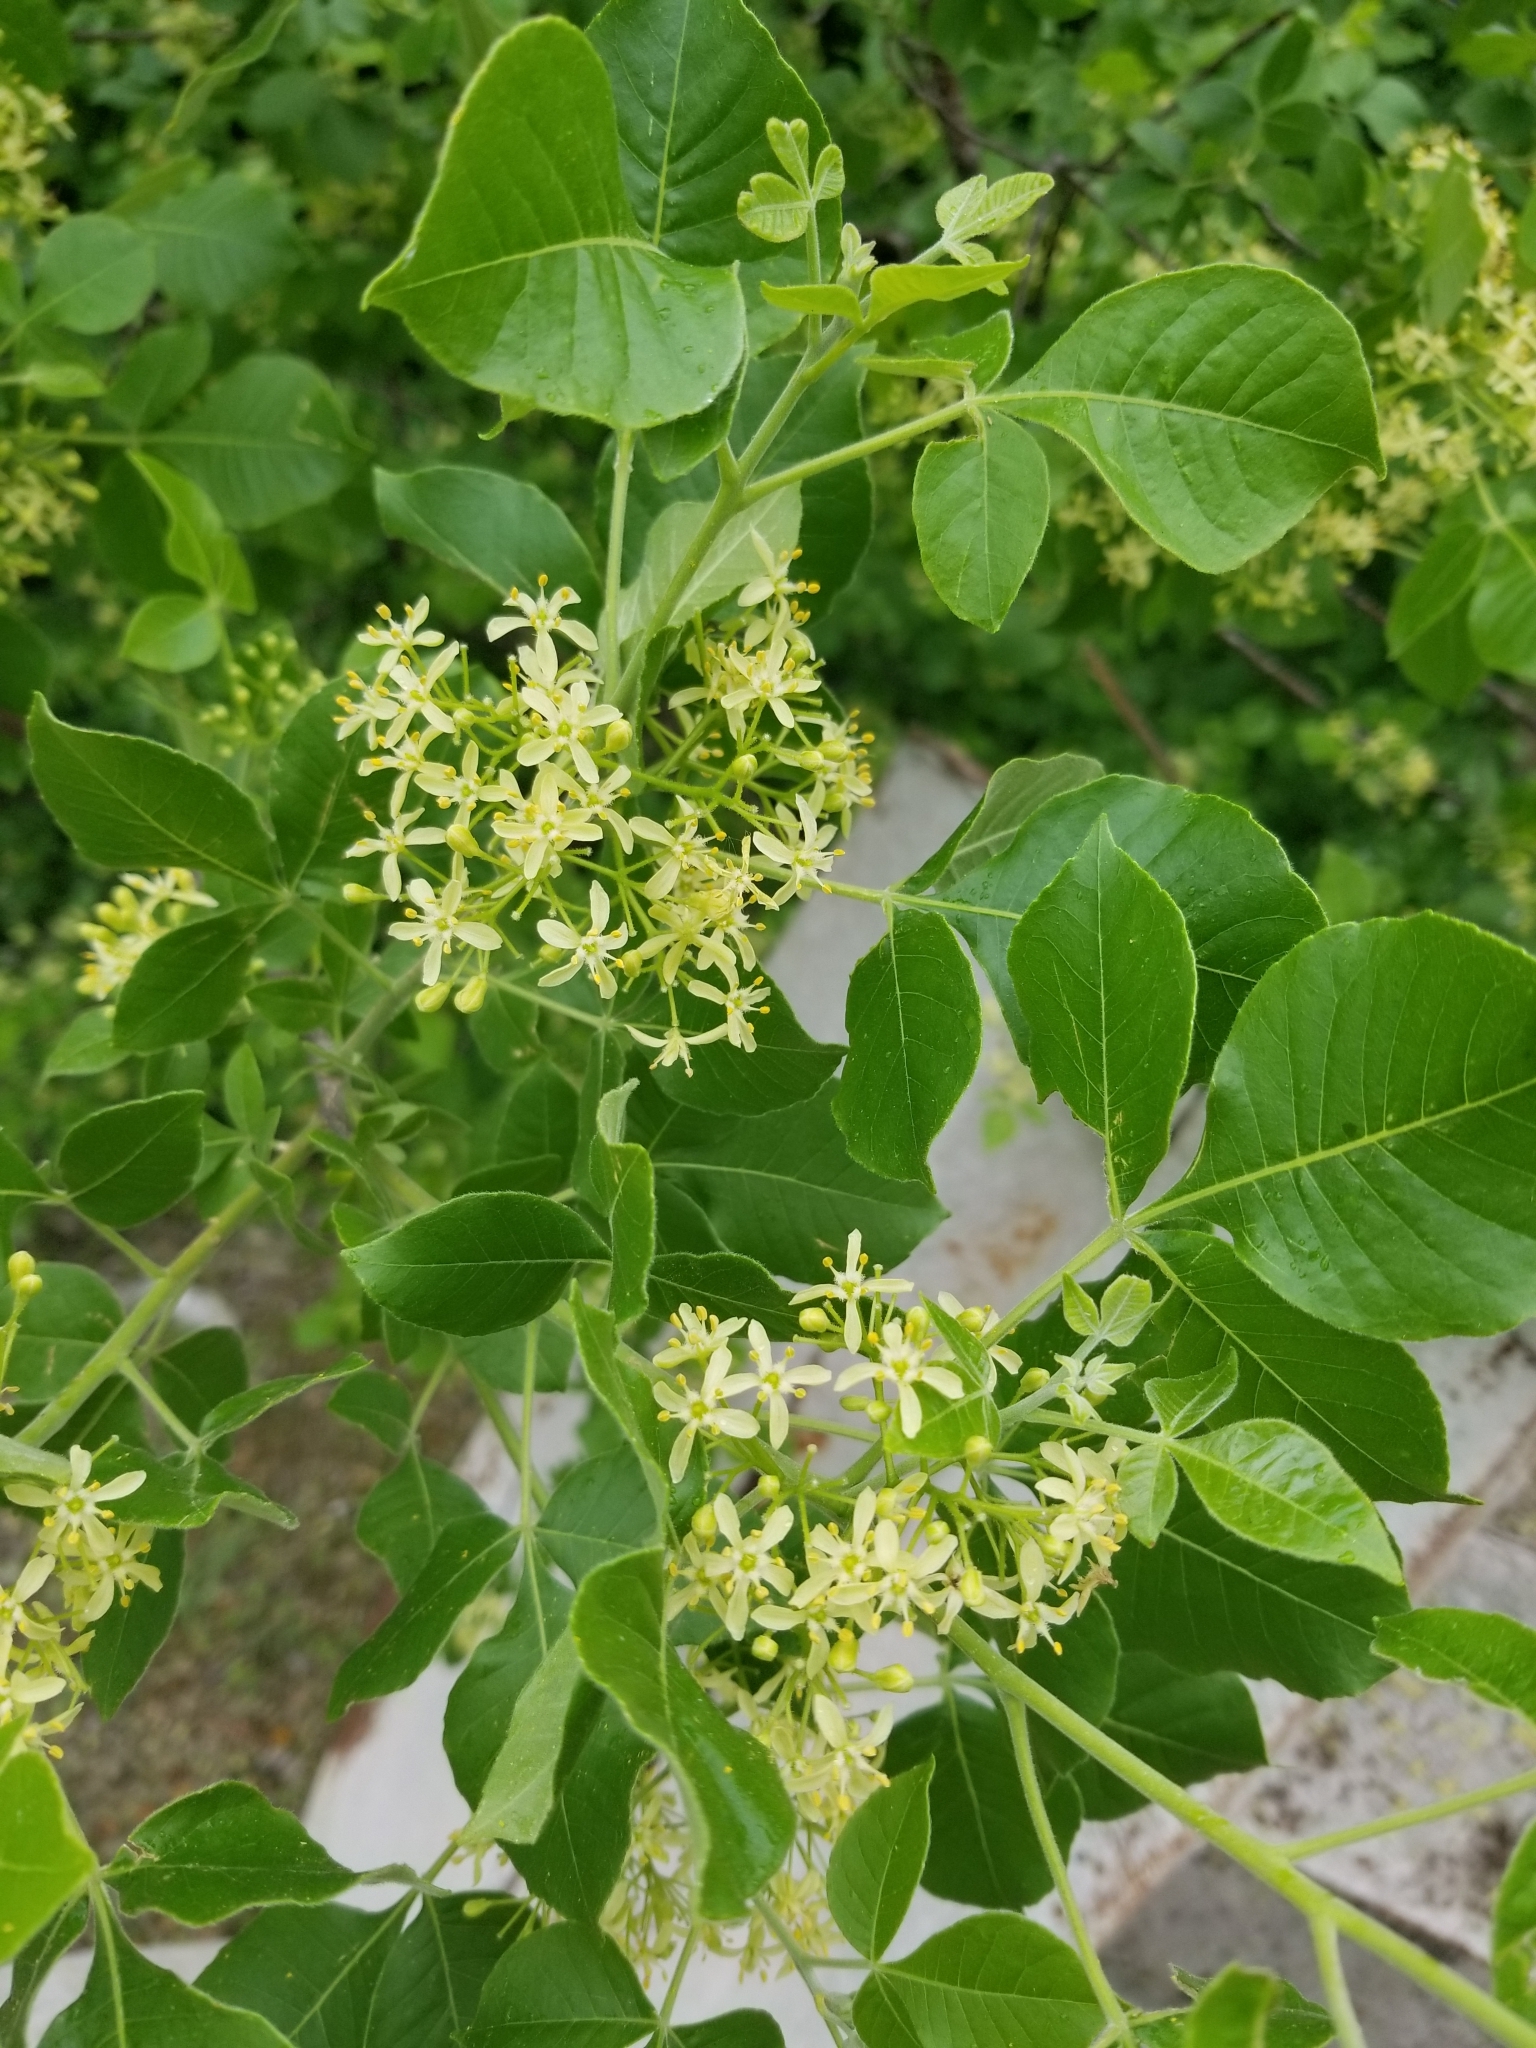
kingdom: Plantae
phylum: Tracheophyta
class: Magnoliopsida
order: Sapindales
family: Rutaceae
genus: Ptelea
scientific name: Ptelea trifoliata
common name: Common hop-tree
